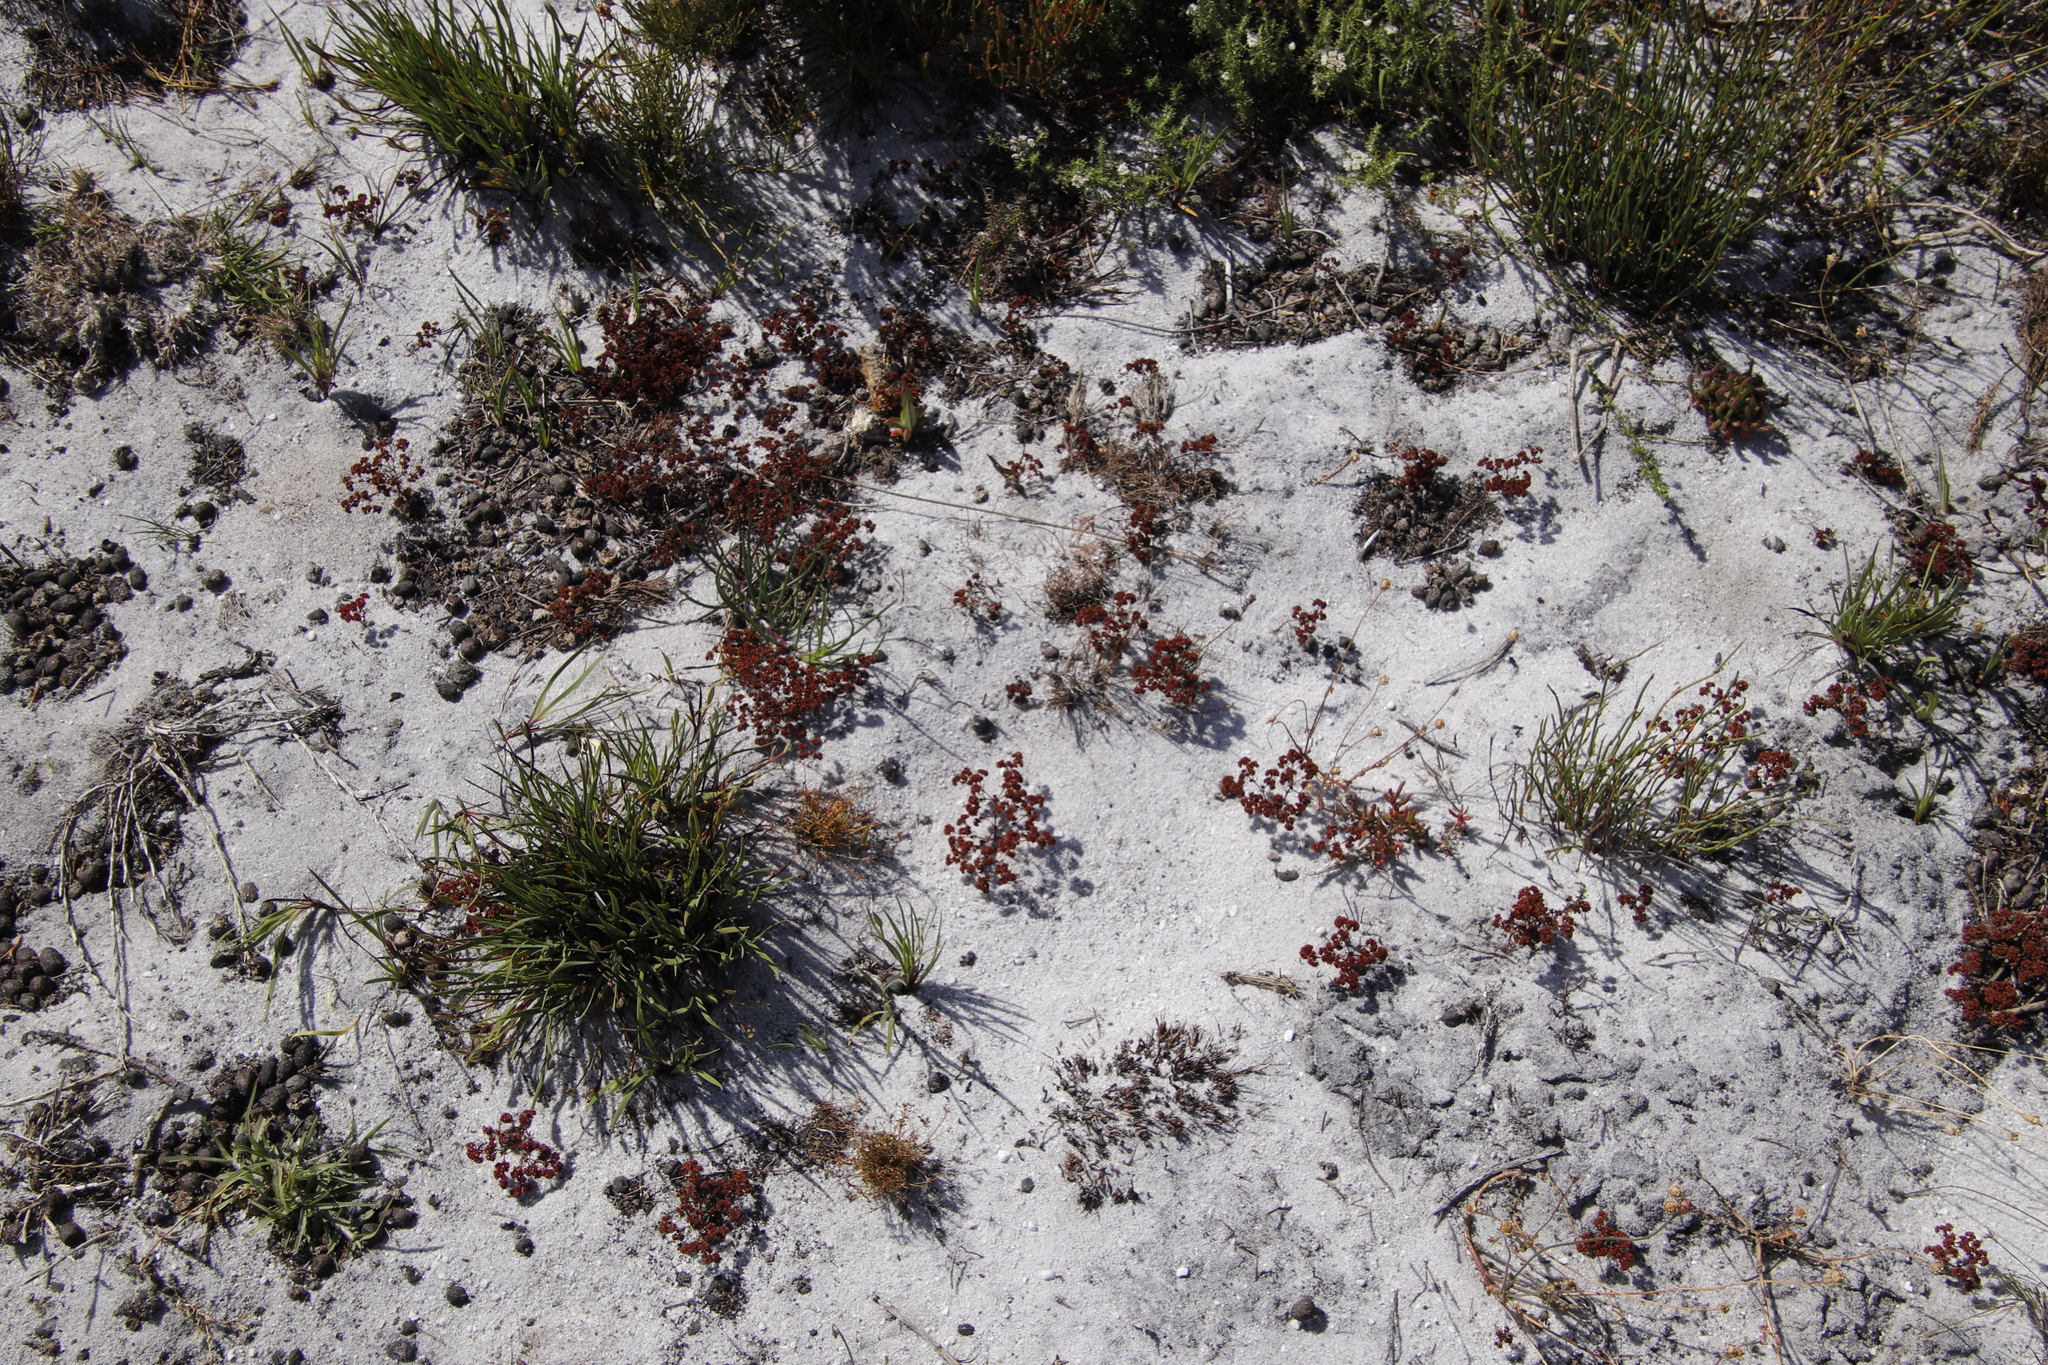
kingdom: Plantae
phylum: Tracheophyta
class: Magnoliopsida
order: Saxifragales
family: Crassulaceae
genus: Crassula
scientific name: Crassula glomerata
